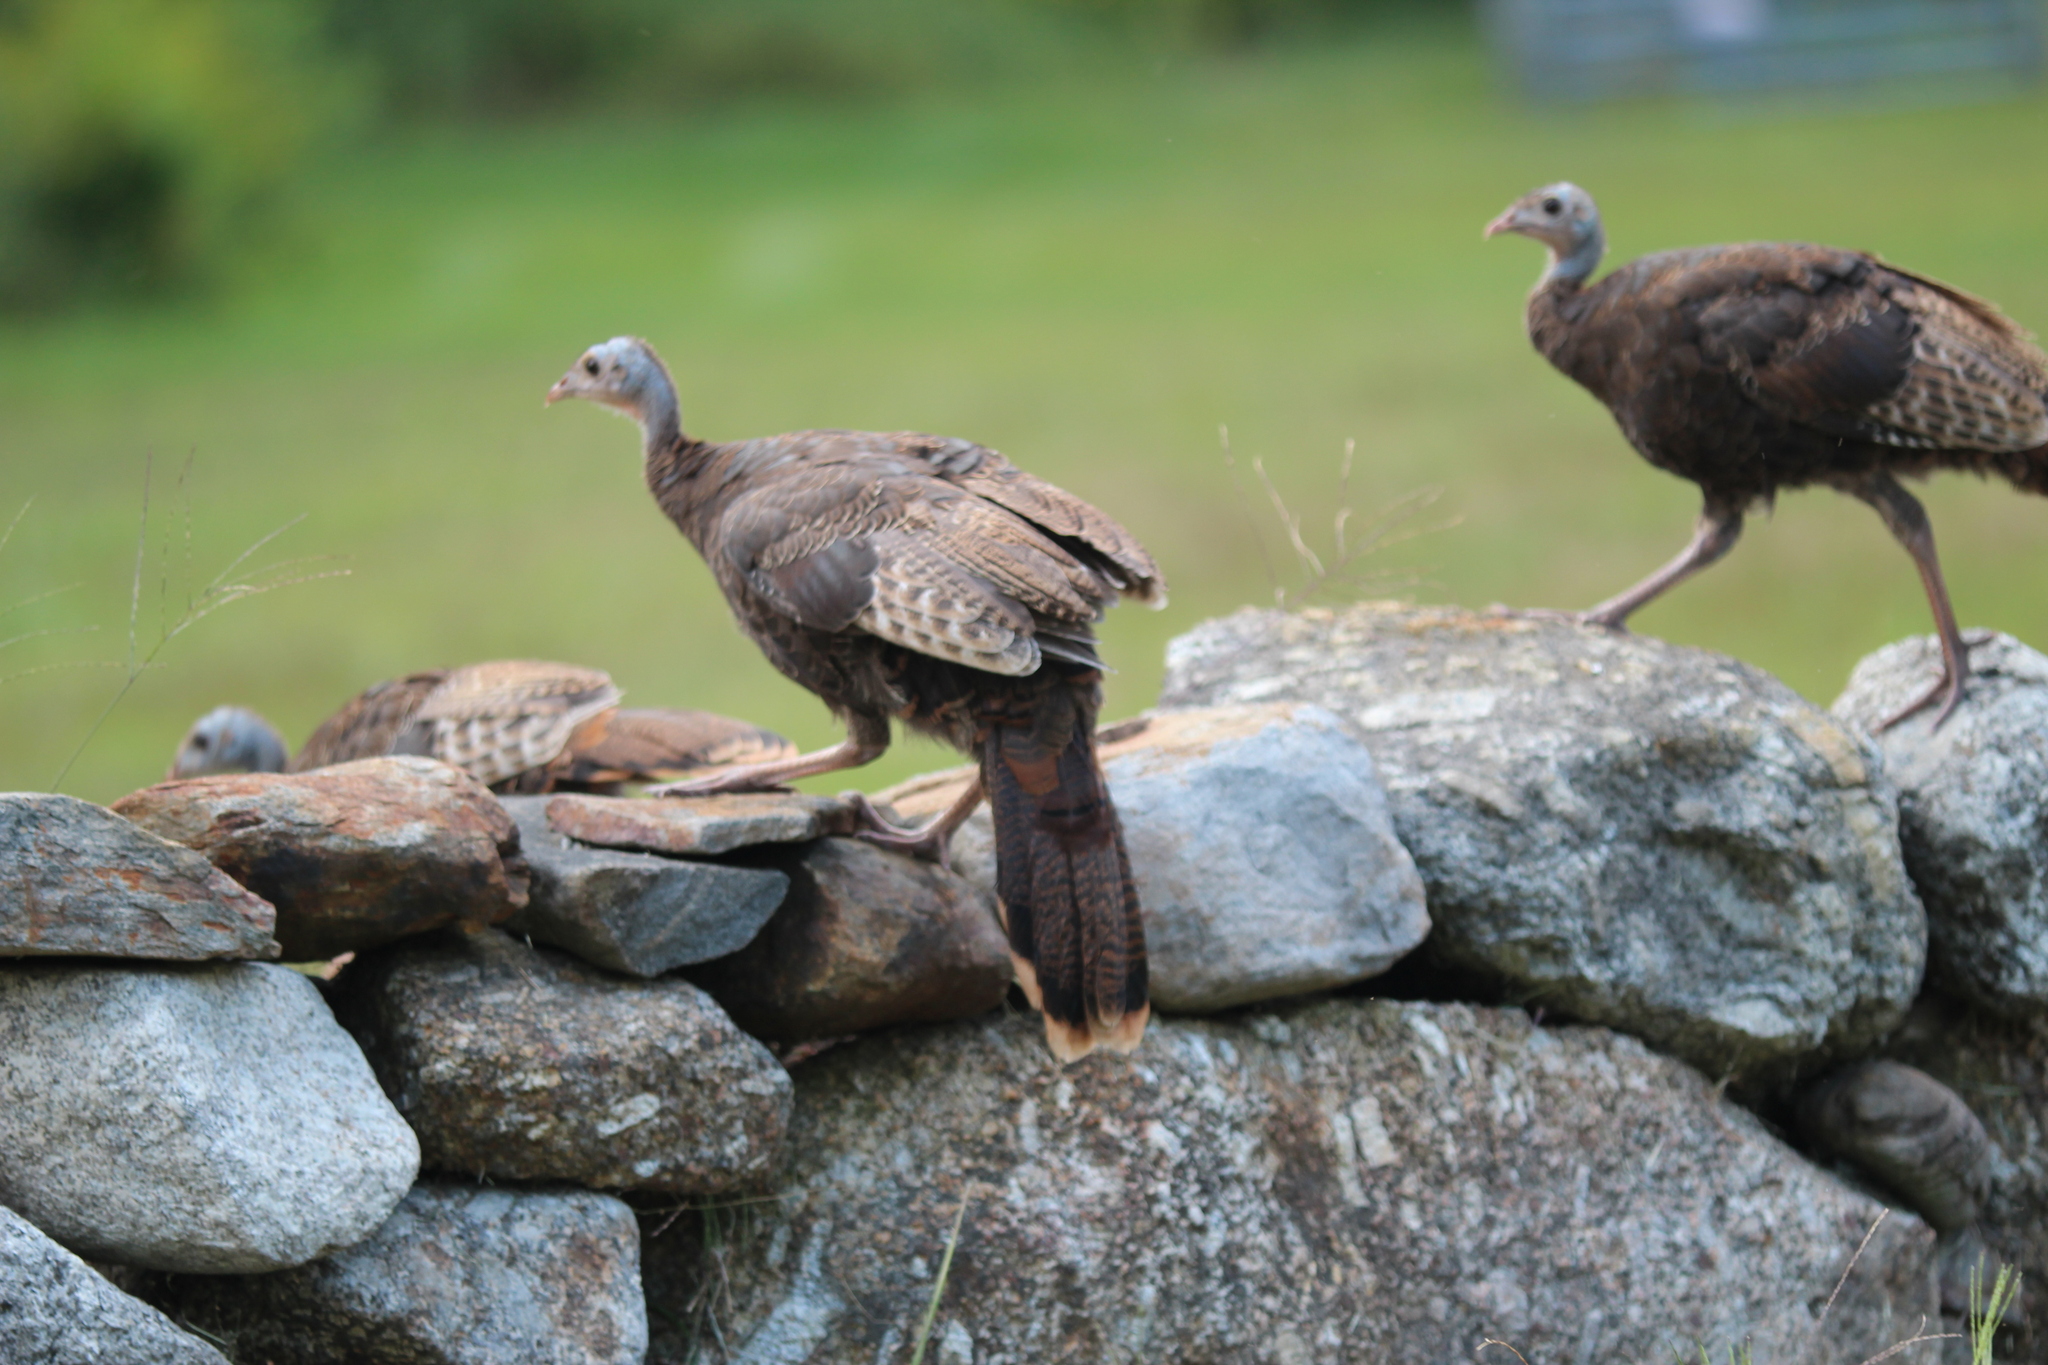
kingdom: Animalia
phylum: Chordata
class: Aves
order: Galliformes
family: Phasianidae
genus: Meleagris
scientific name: Meleagris gallopavo
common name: Wild turkey
